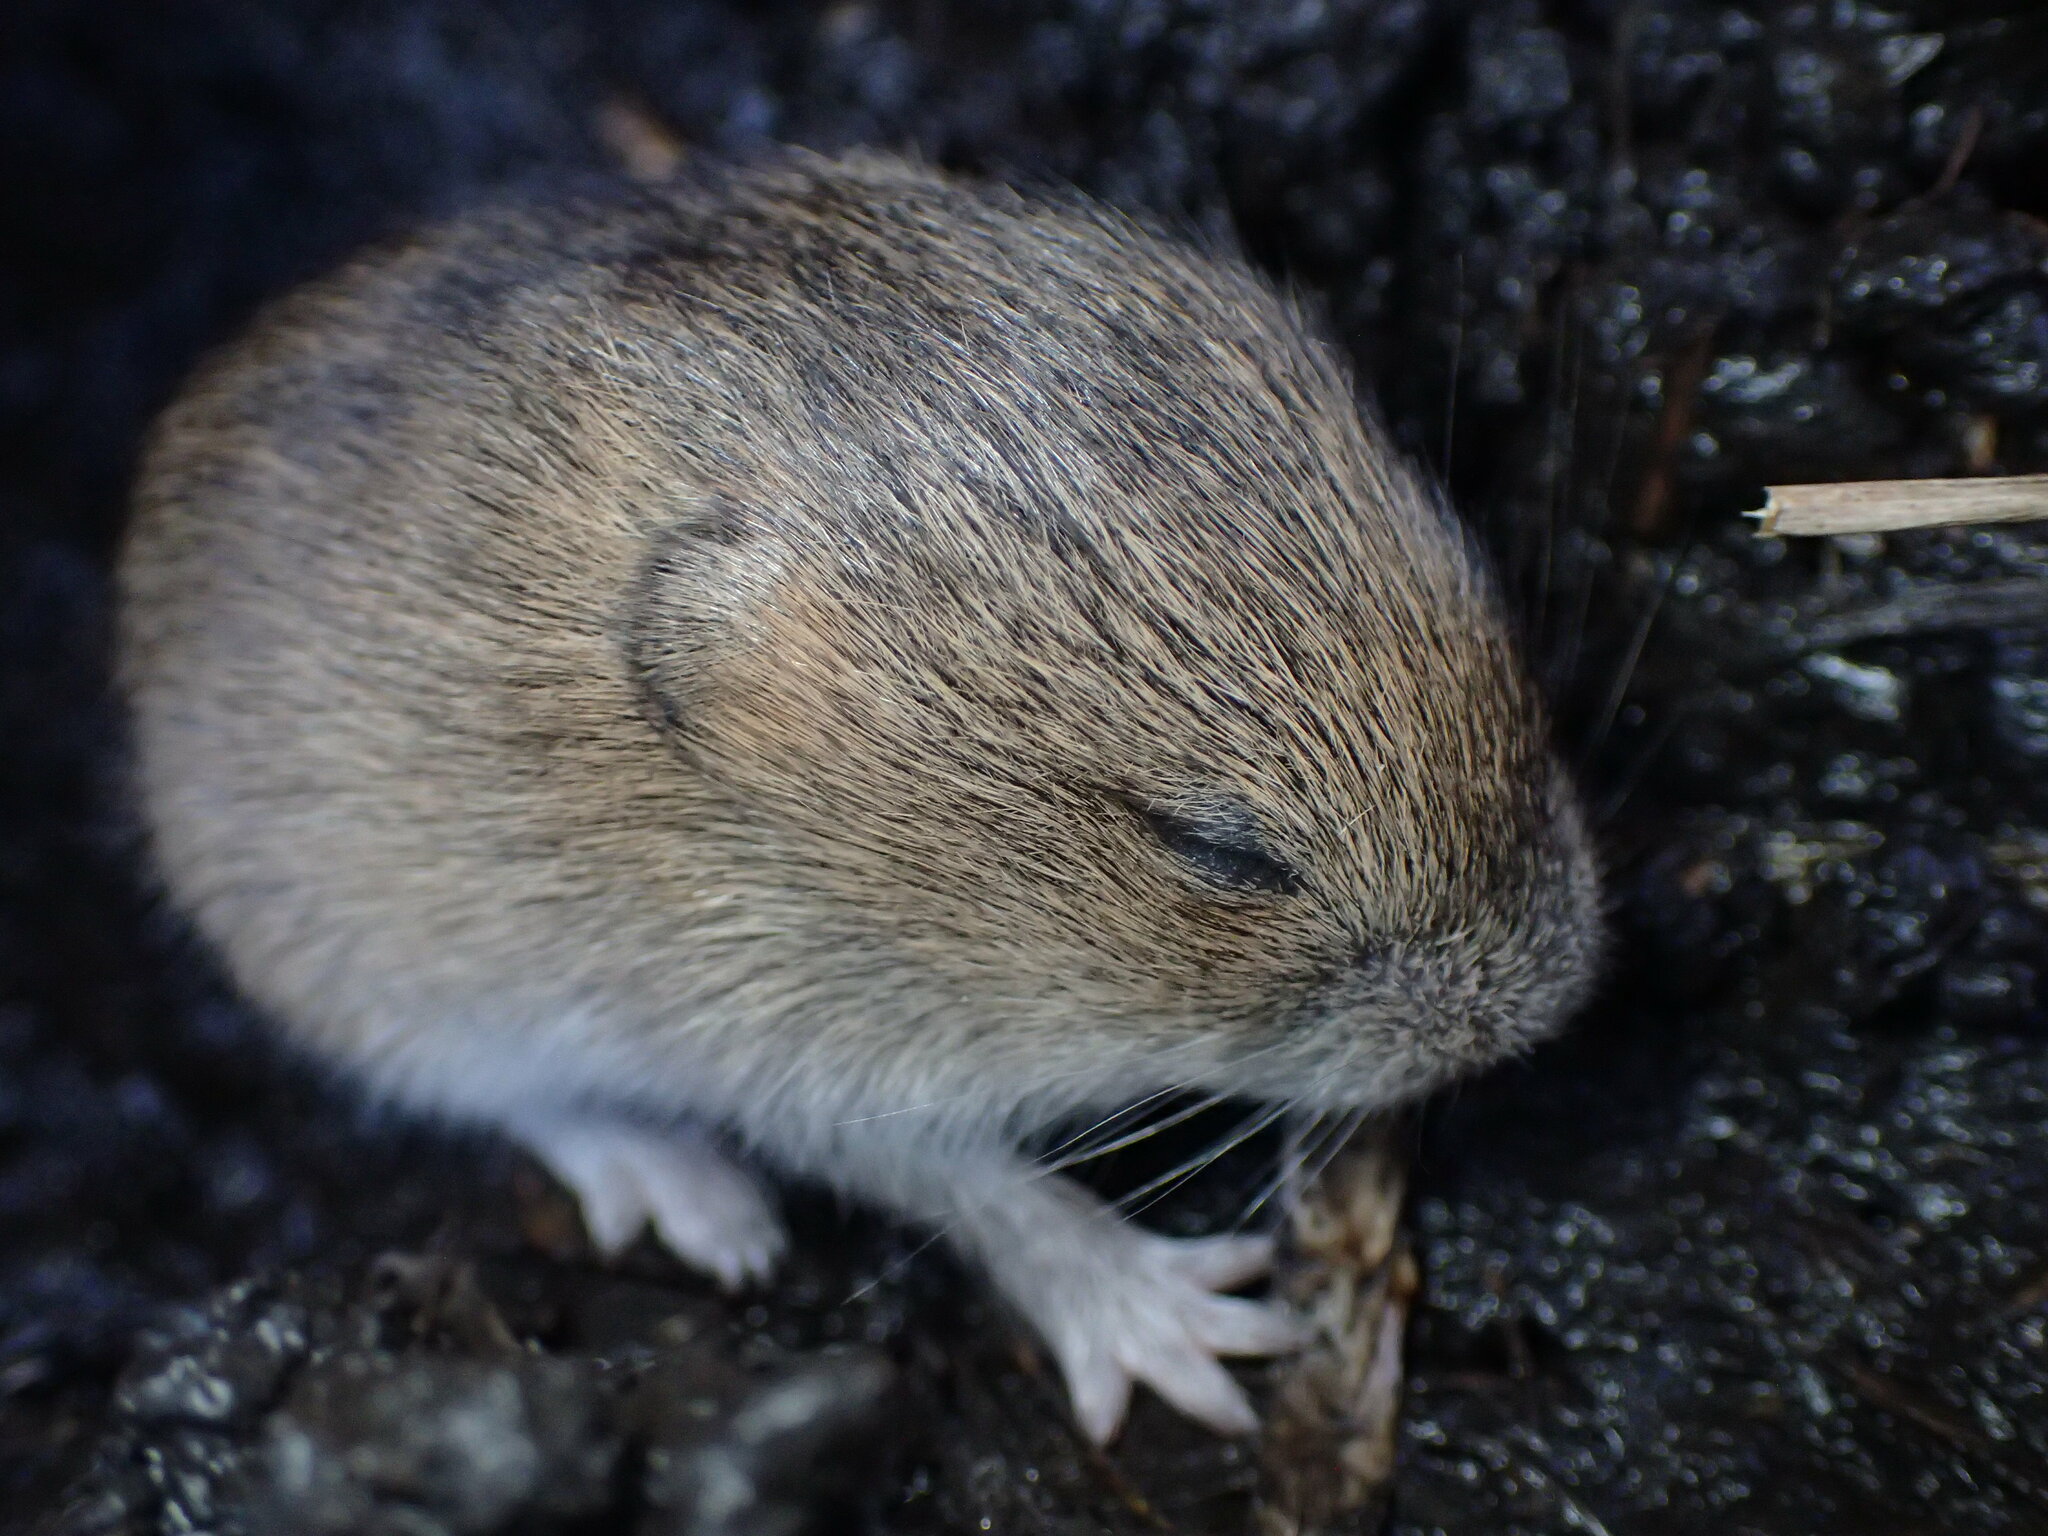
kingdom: Animalia
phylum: Chordata
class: Mammalia
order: Rodentia
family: Cricetidae
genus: Microtus
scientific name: Microtus californicus
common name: California vole
